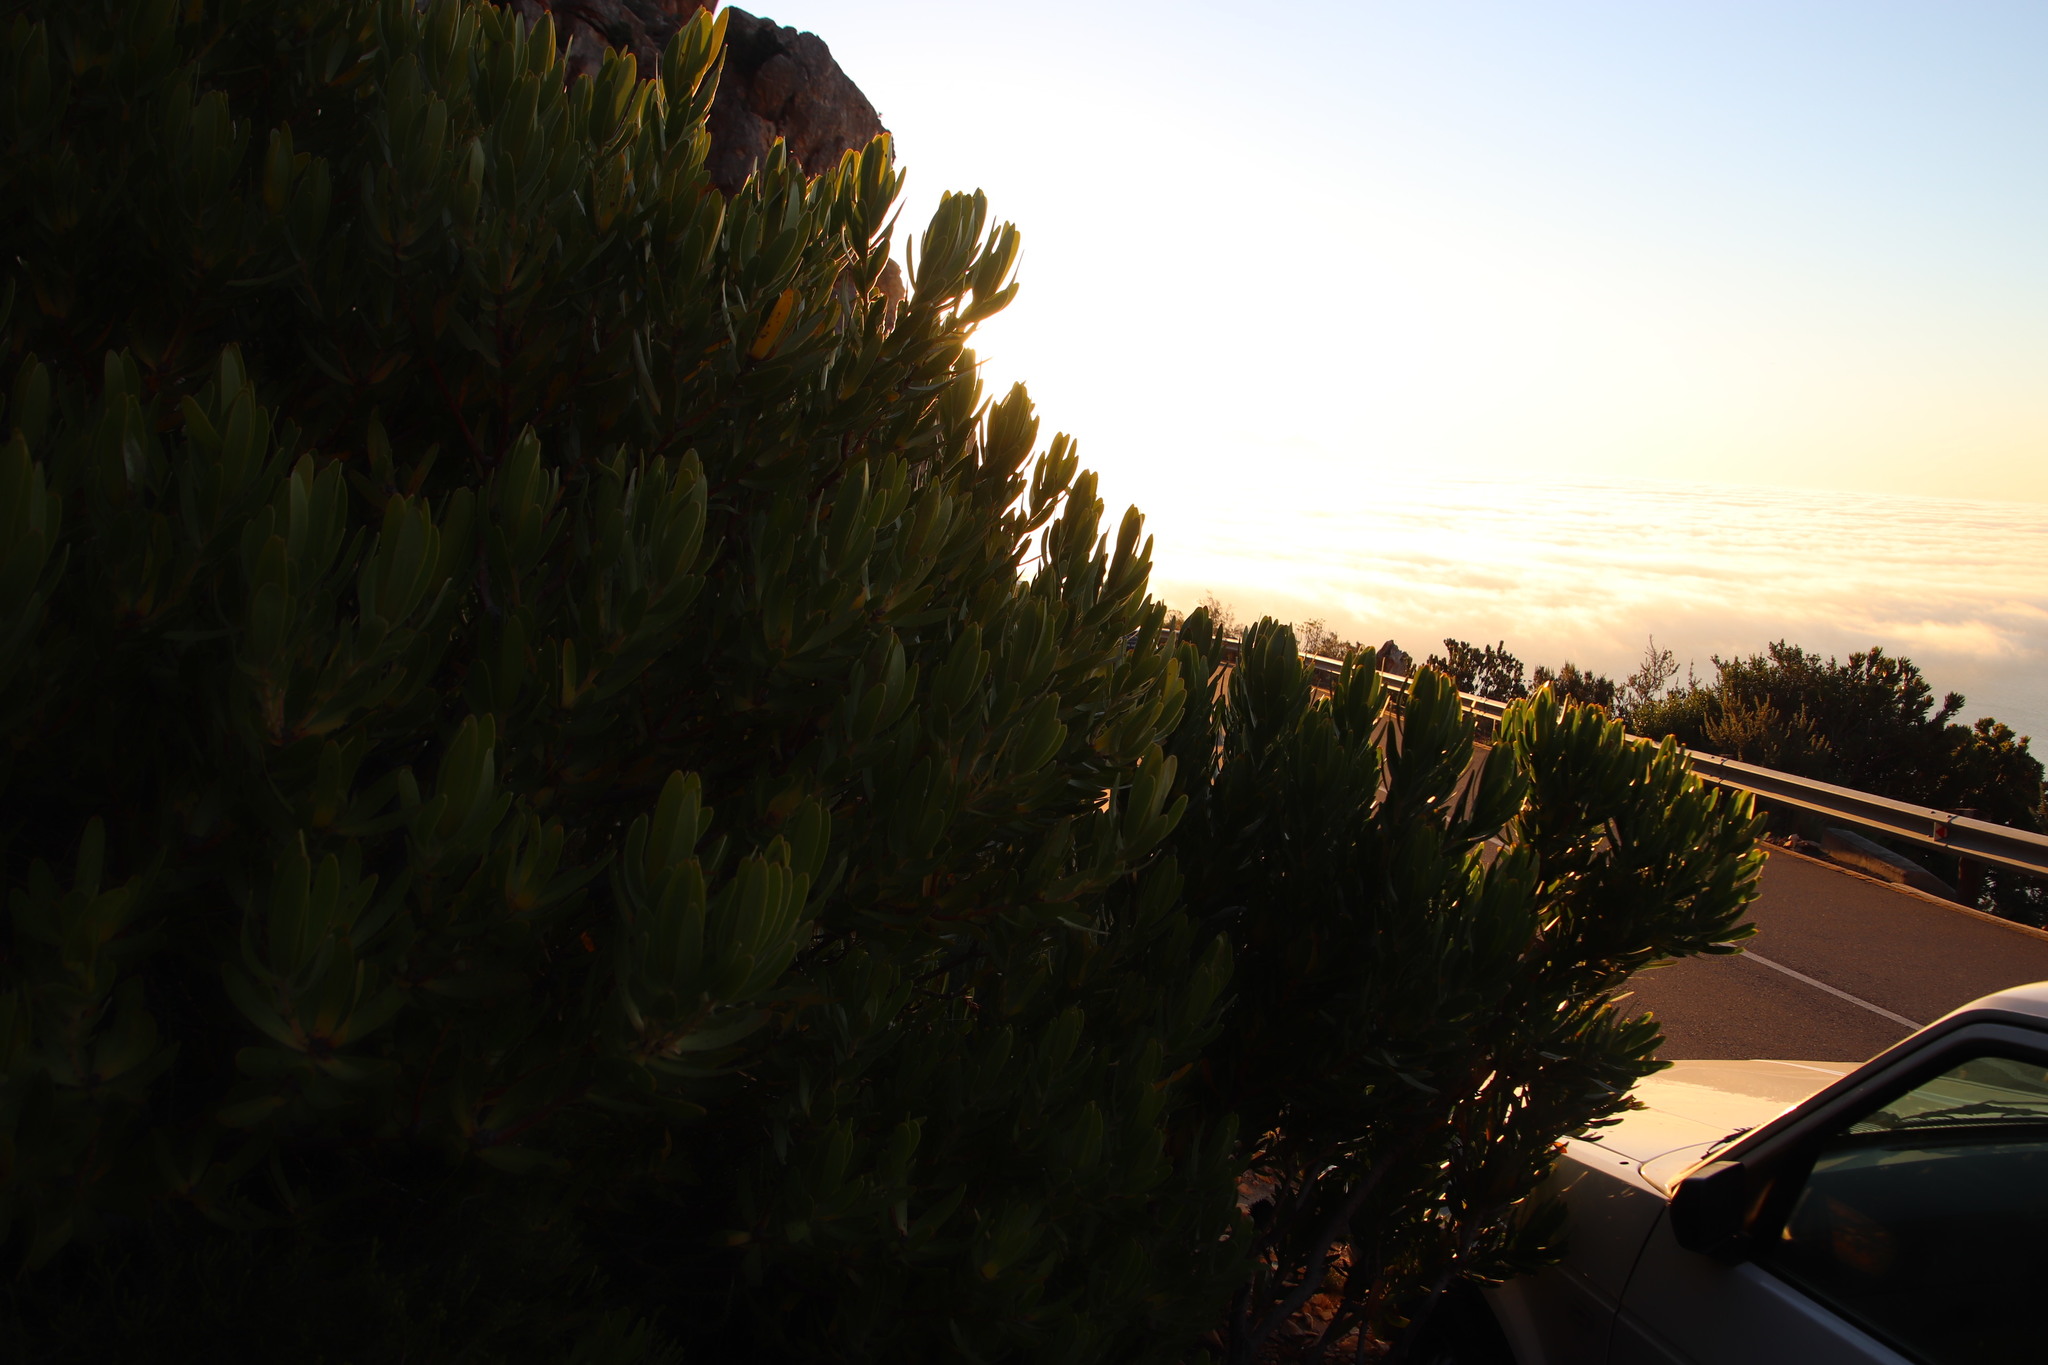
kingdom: Plantae
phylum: Tracheophyta
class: Magnoliopsida
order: Proteales
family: Proteaceae
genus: Leucadendron
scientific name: Leucadendron laureolum
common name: Golden sunshinebush
